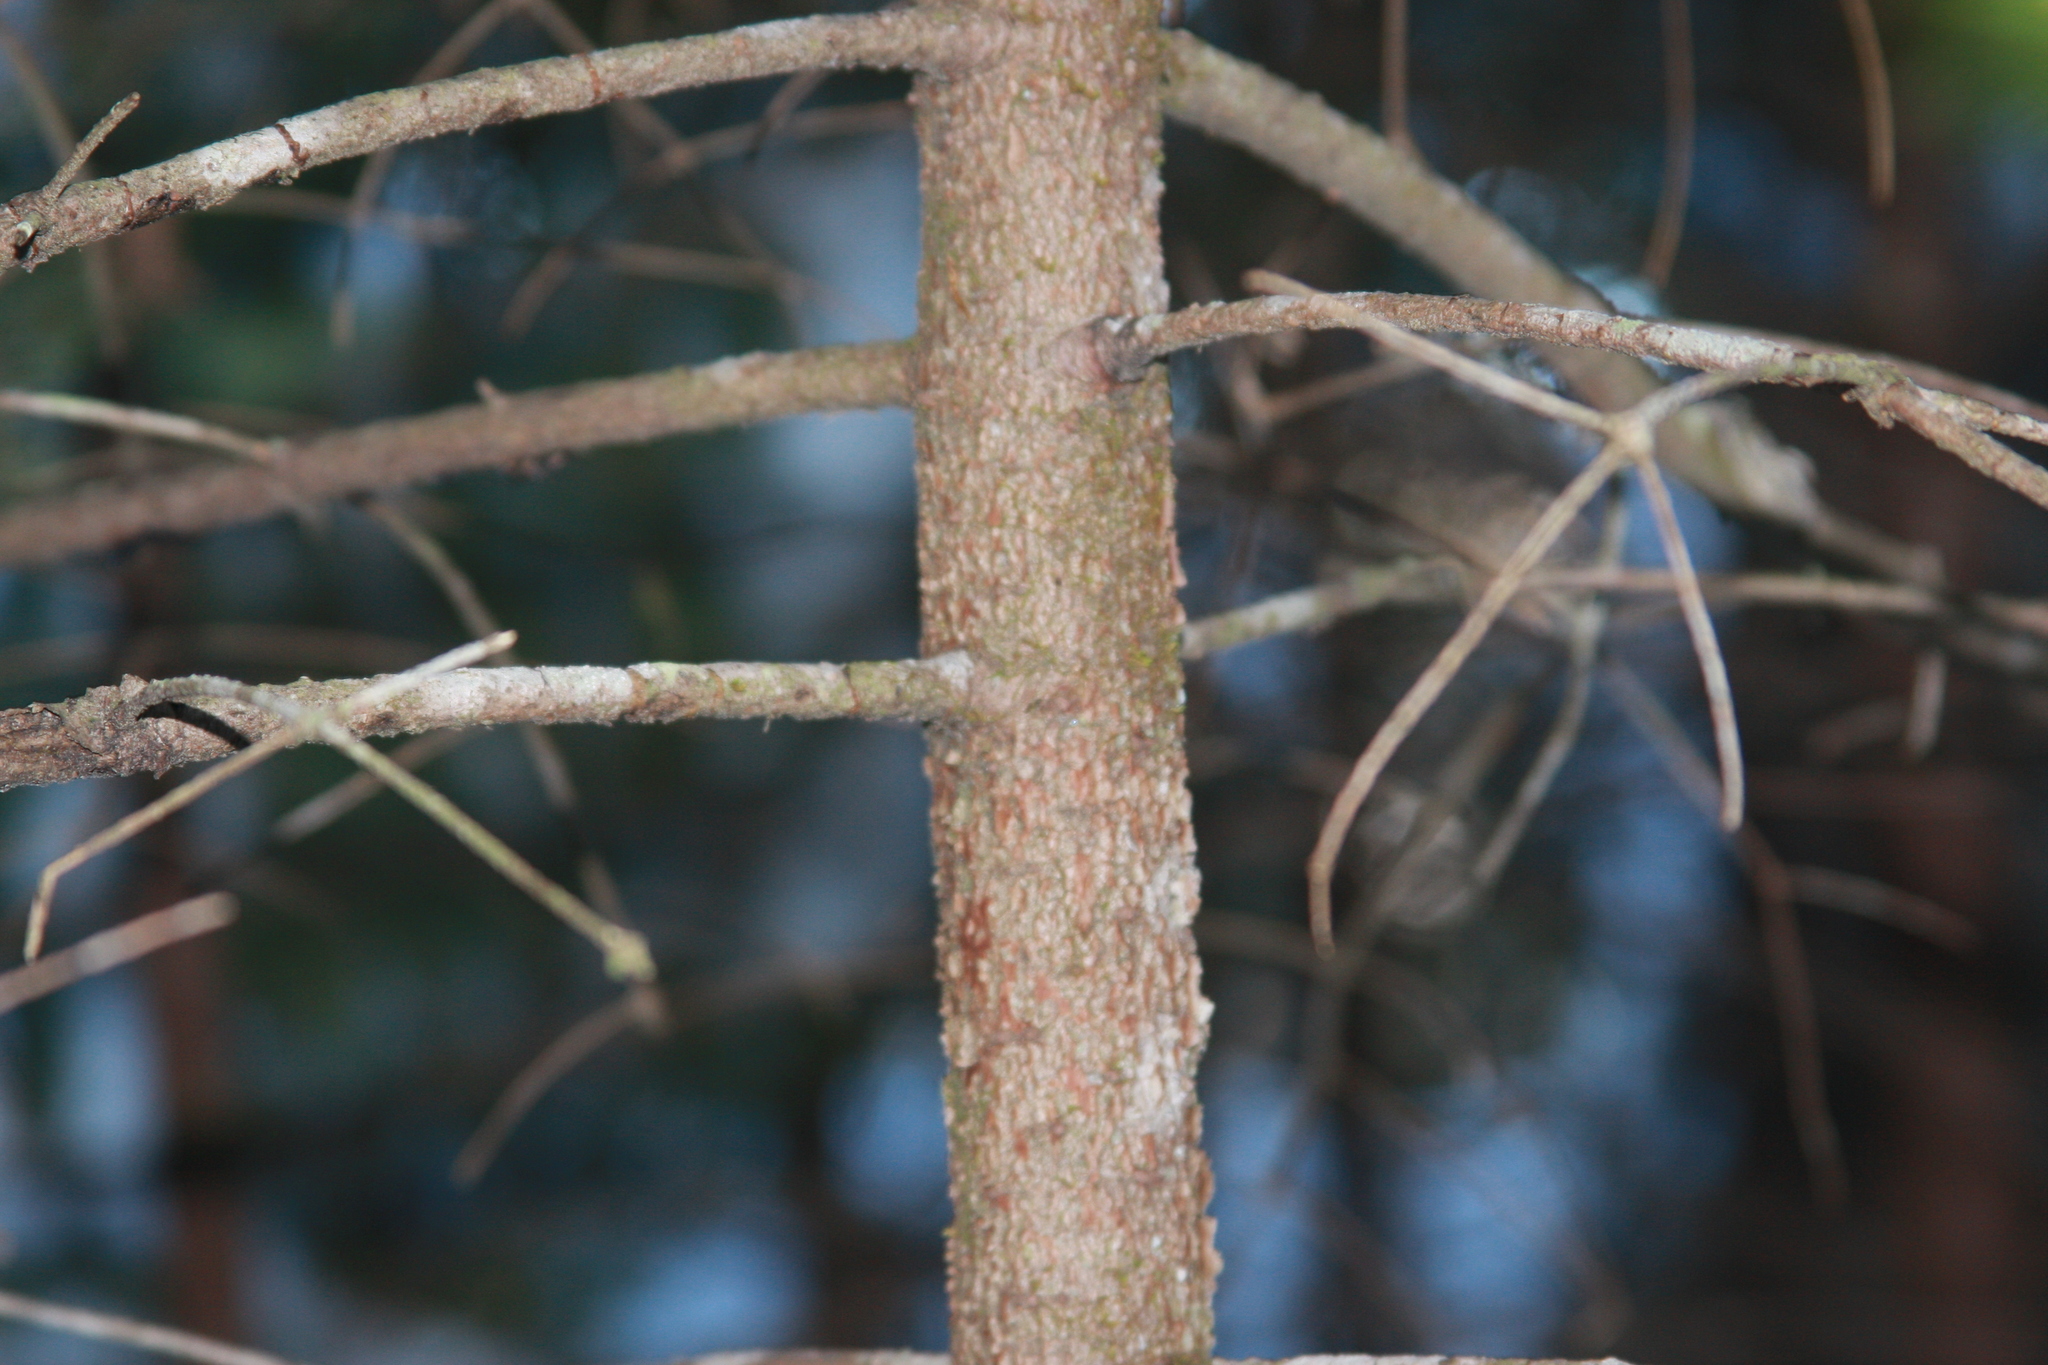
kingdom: Plantae
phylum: Tracheophyta
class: Pinopsida
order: Pinales
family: Pinaceae
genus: Abies
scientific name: Abies balsamea
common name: Balsam fir
